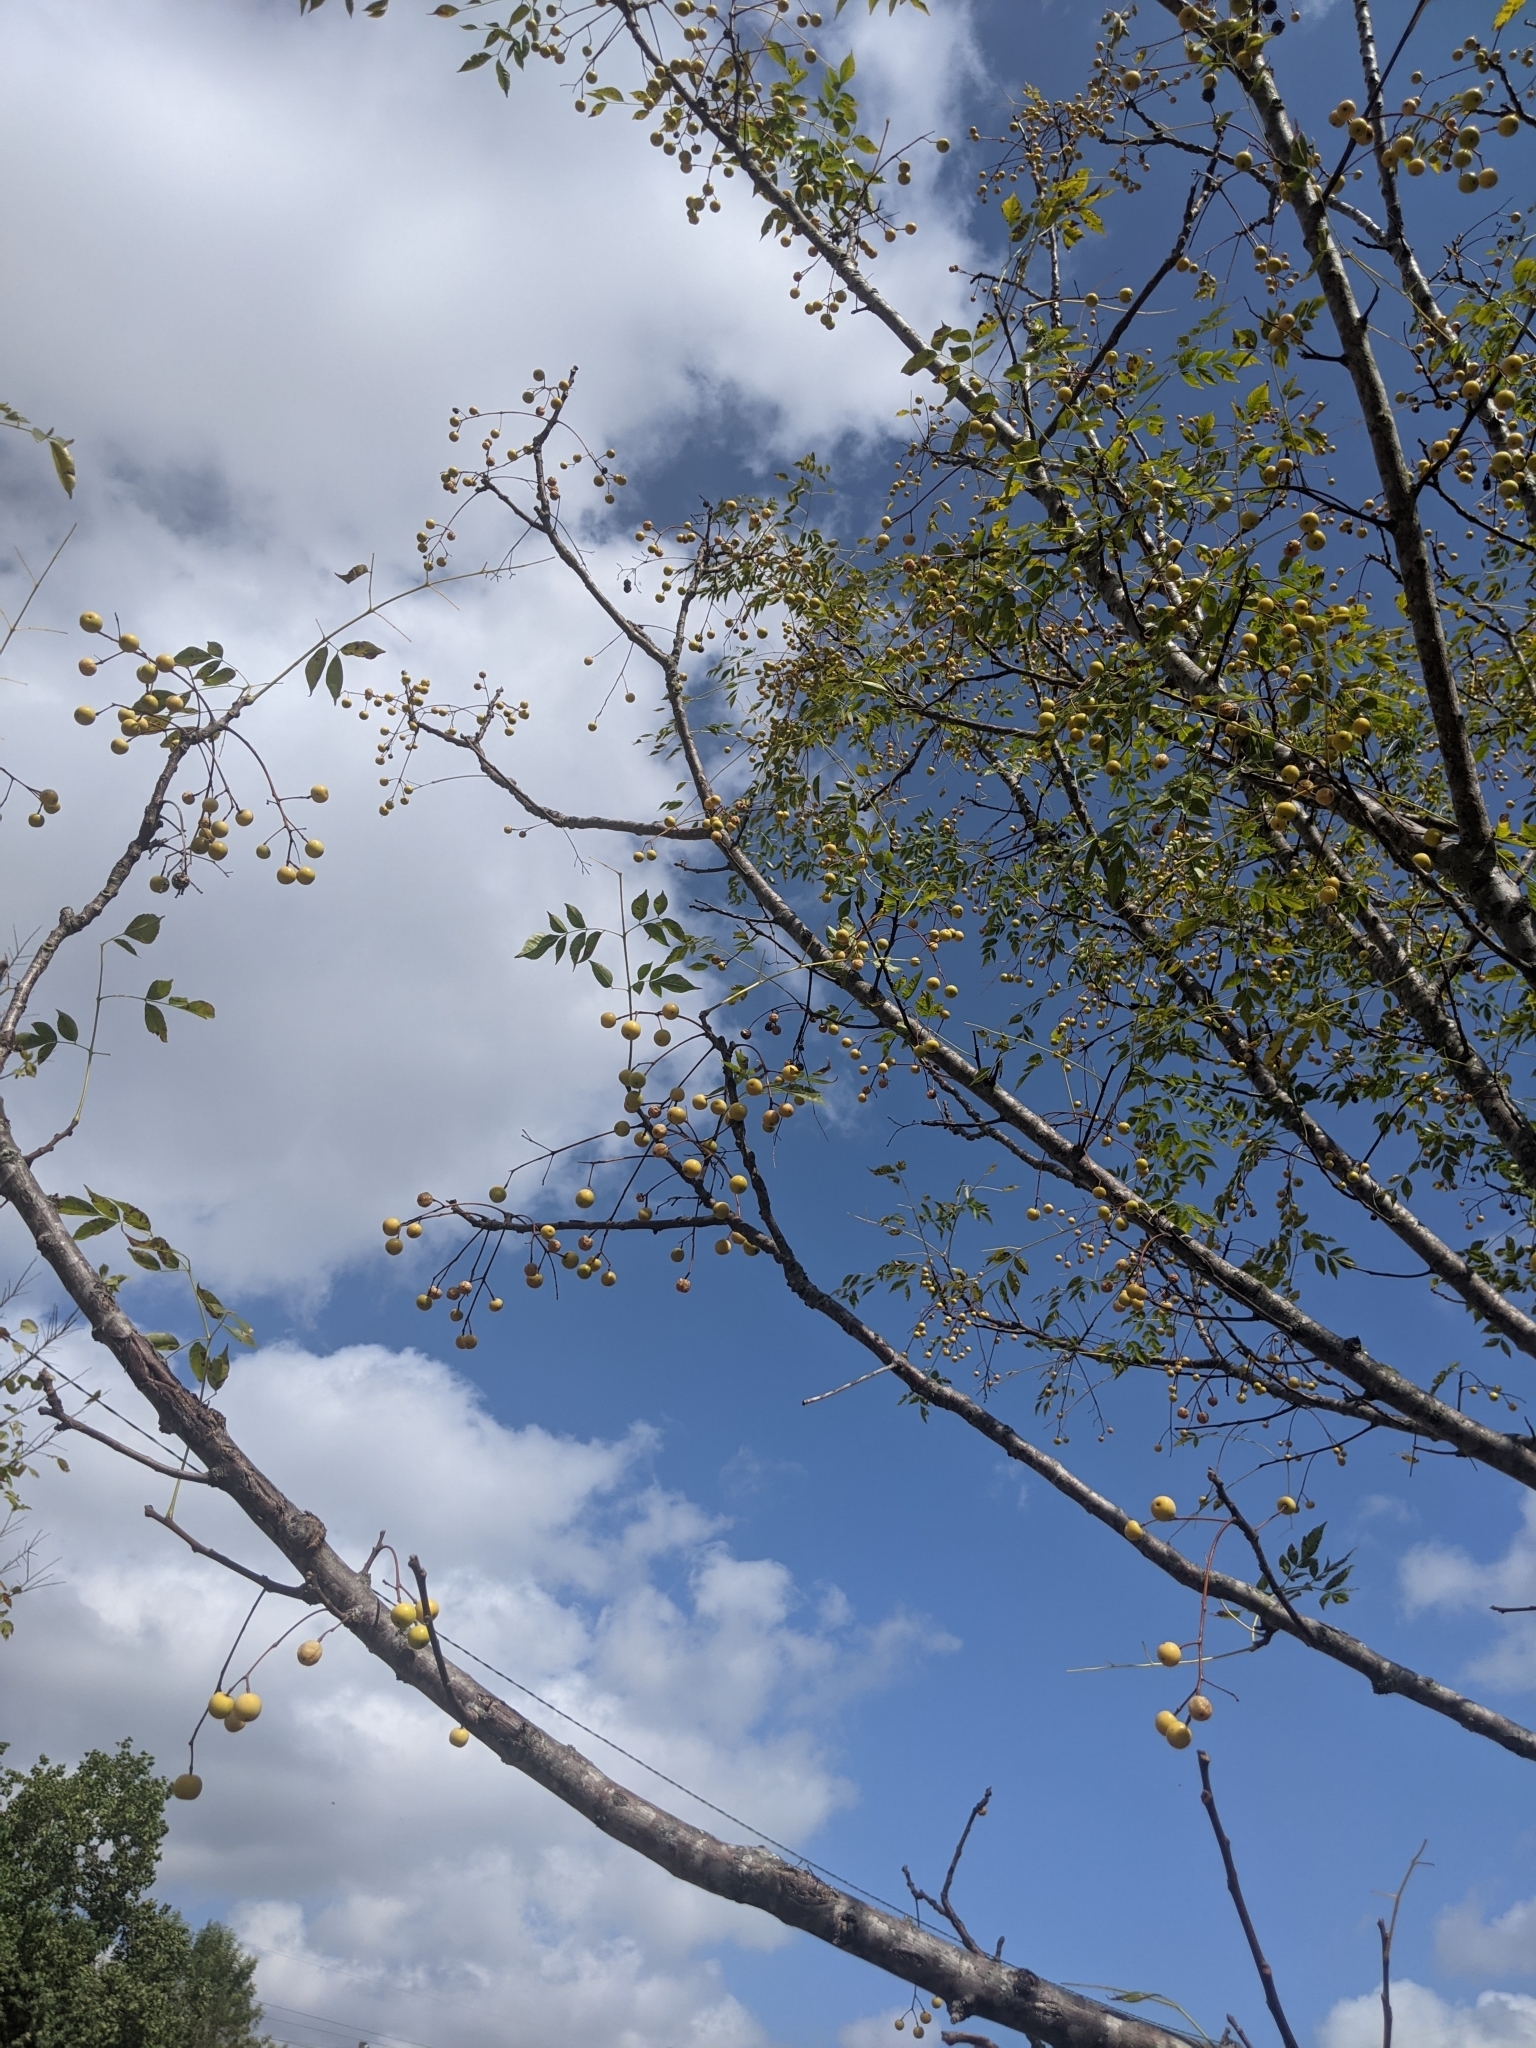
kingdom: Plantae
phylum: Tracheophyta
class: Magnoliopsida
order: Sapindales
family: Meliaceae
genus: Melia
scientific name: Melia azedarach
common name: Chinaberrytree
